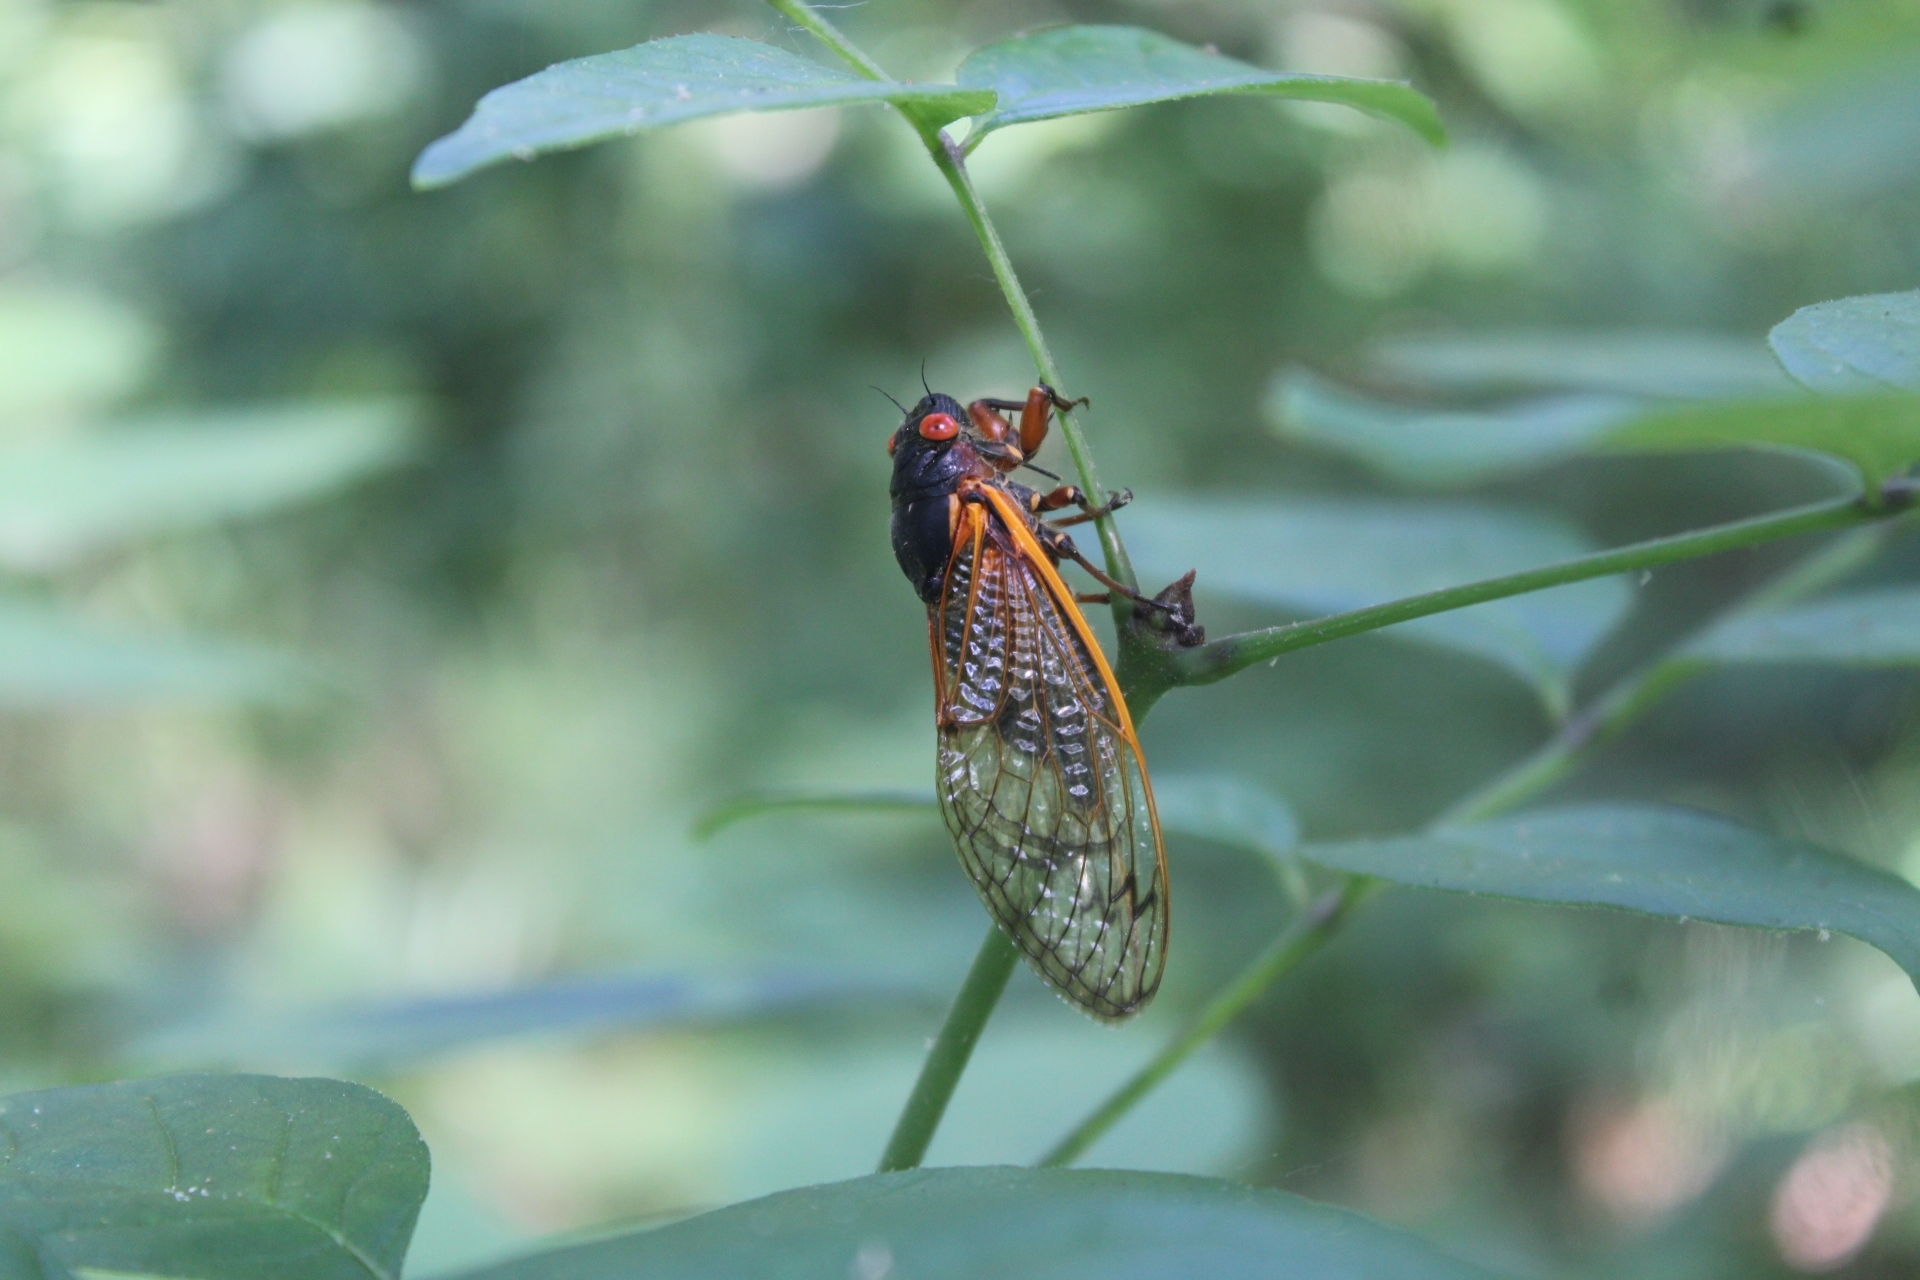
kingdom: Animalia
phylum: Arthropoda
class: Insecta
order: Hemiptera
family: Cicadidae
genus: Magicicada
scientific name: Magicicada septendecim
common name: Periodical cicada
